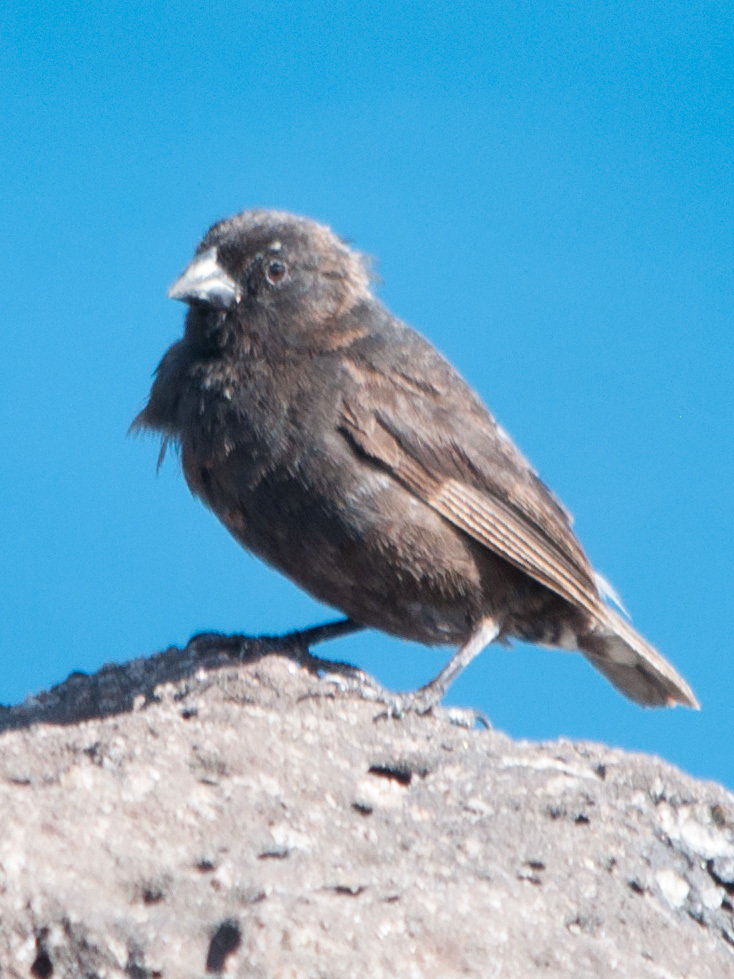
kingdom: Animalia
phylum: Chordata
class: Aves
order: Passeriformes
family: Thraupidae
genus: Geospiza
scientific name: Geospiza fuliginosa
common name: Small ground finch
